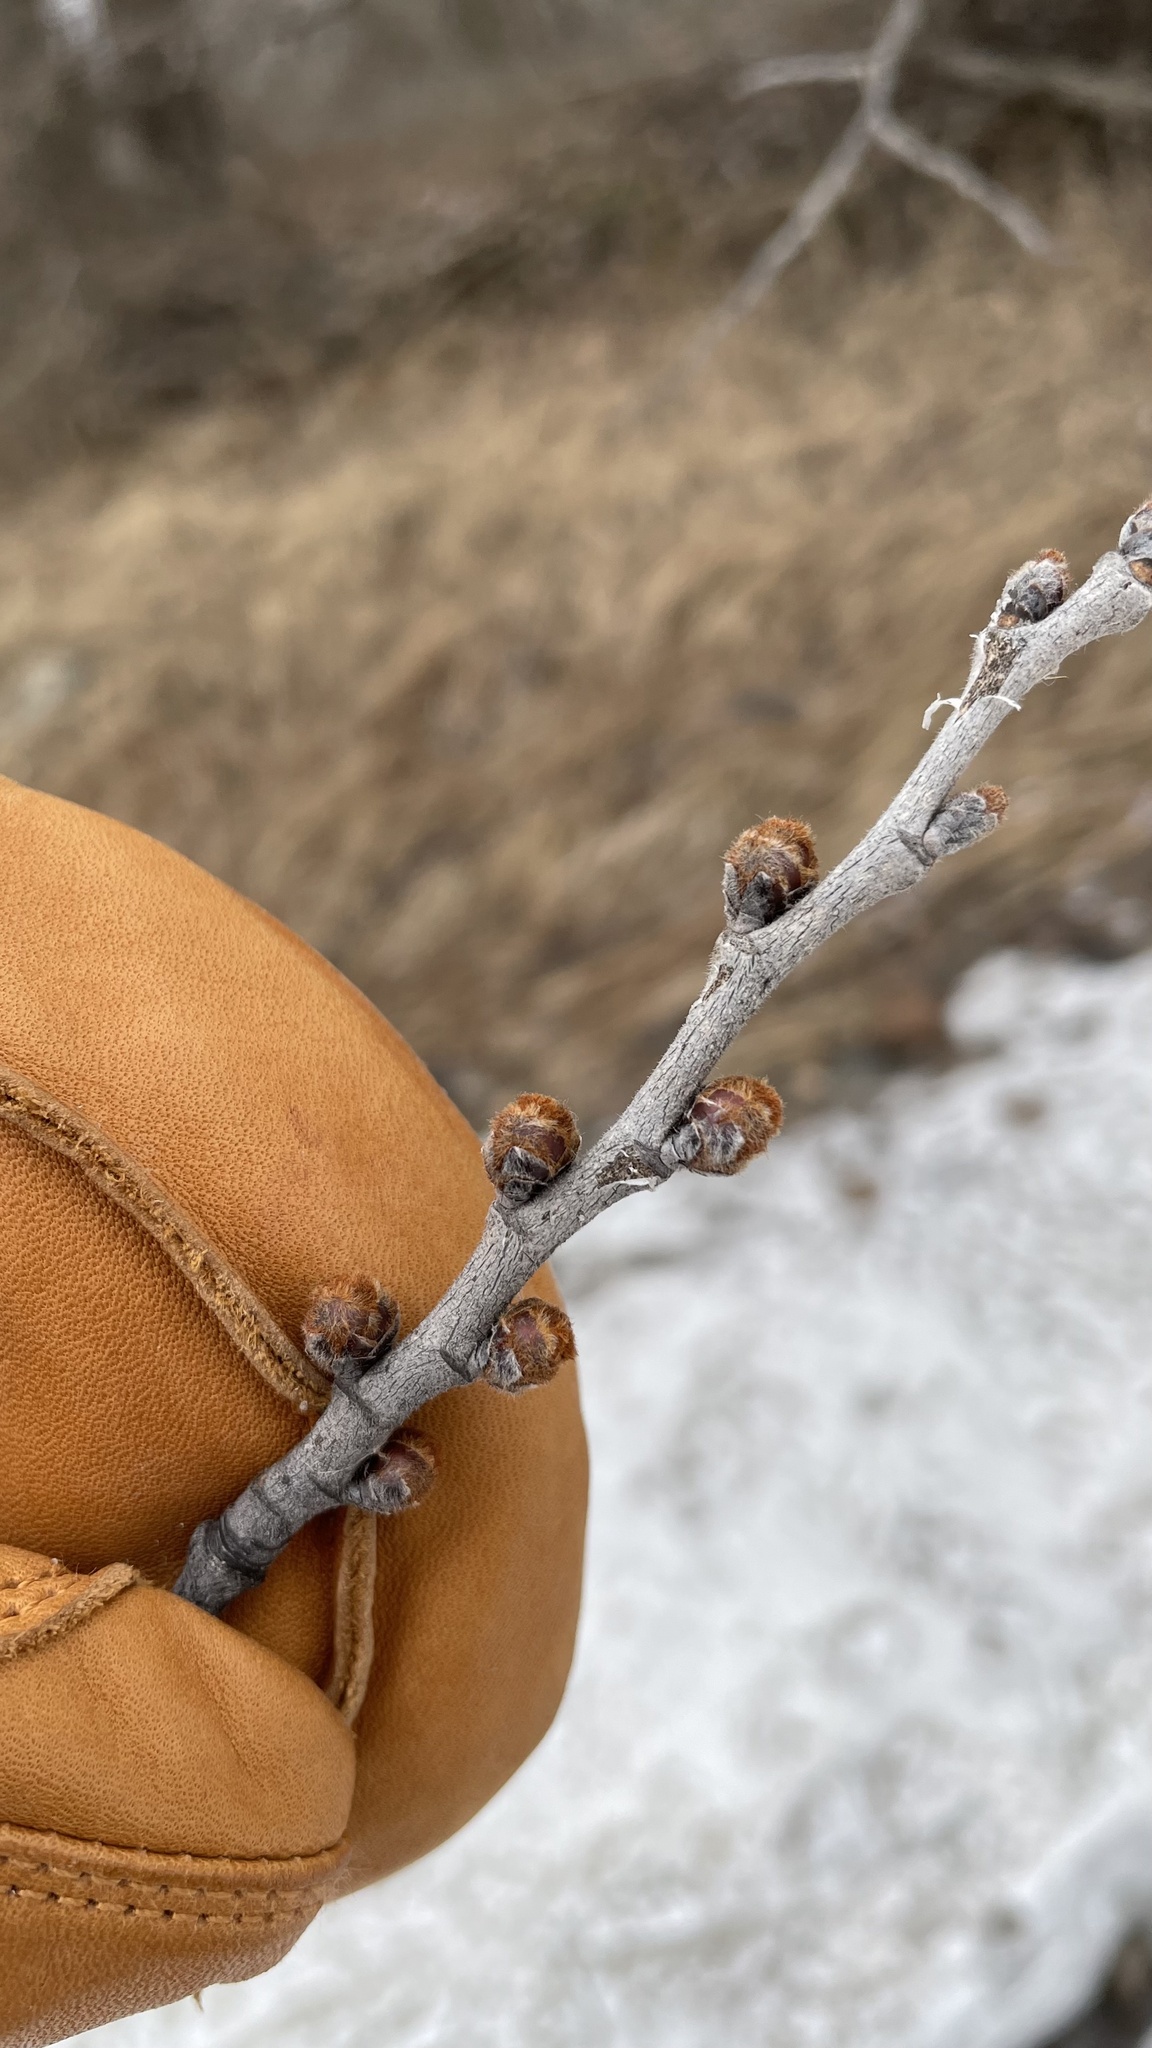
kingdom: Plantae
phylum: Tracheophyta
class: Magnoliopsida
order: Rosales
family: Ulmaceae
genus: Ulmus
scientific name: Ulmus rubra
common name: Slippery elm
